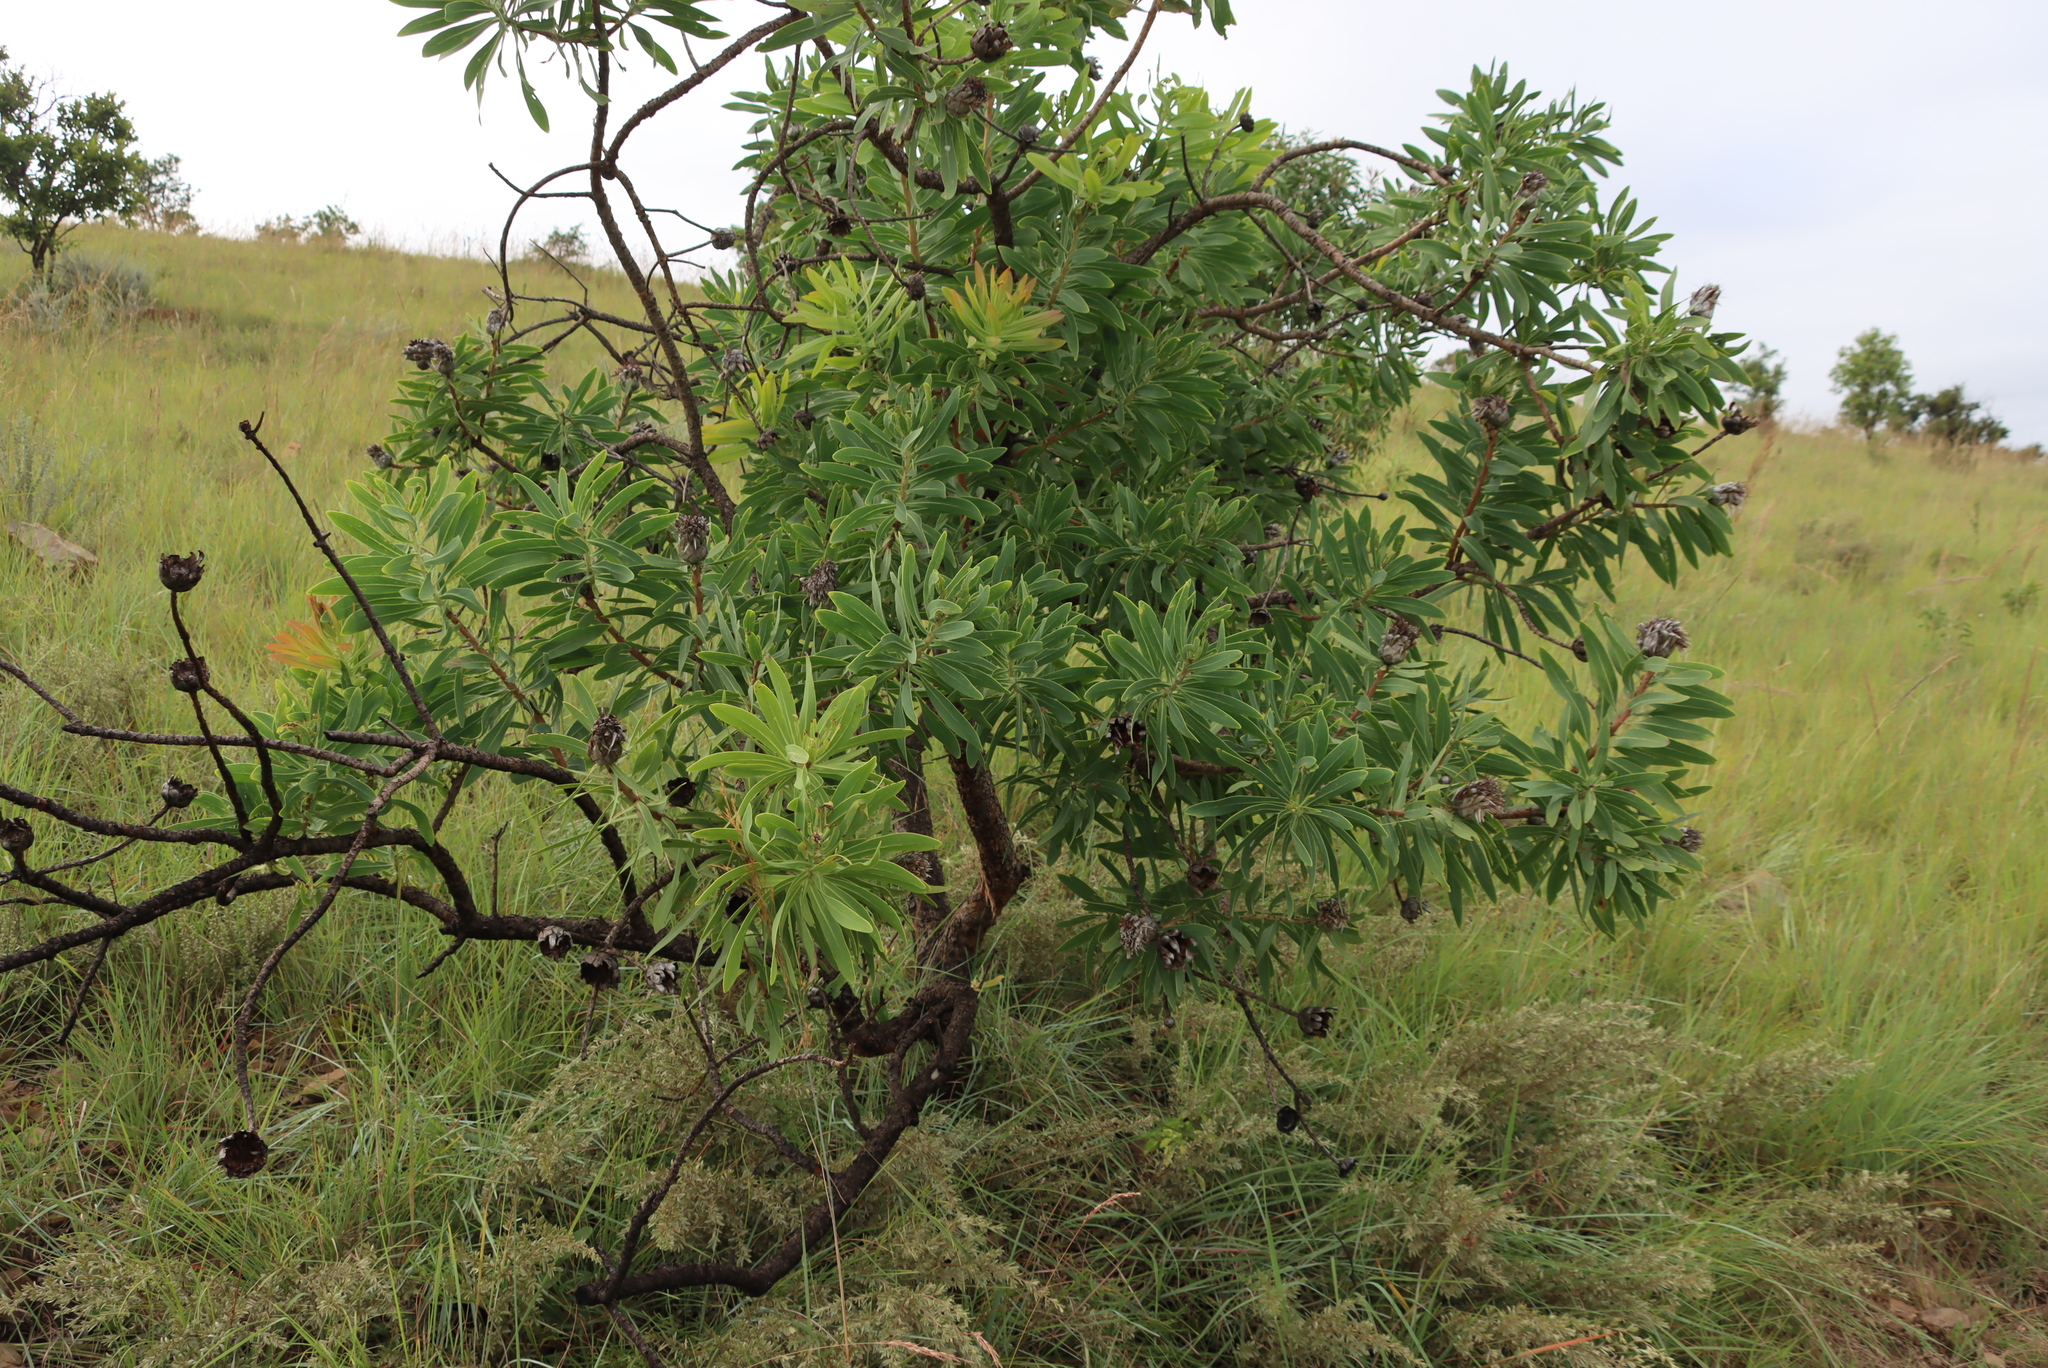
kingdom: Plantae
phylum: Tracheophyta
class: Magnoliopsida
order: Proteales
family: Proteaceae
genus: Protea
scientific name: Protea gaguedi
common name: African protea
